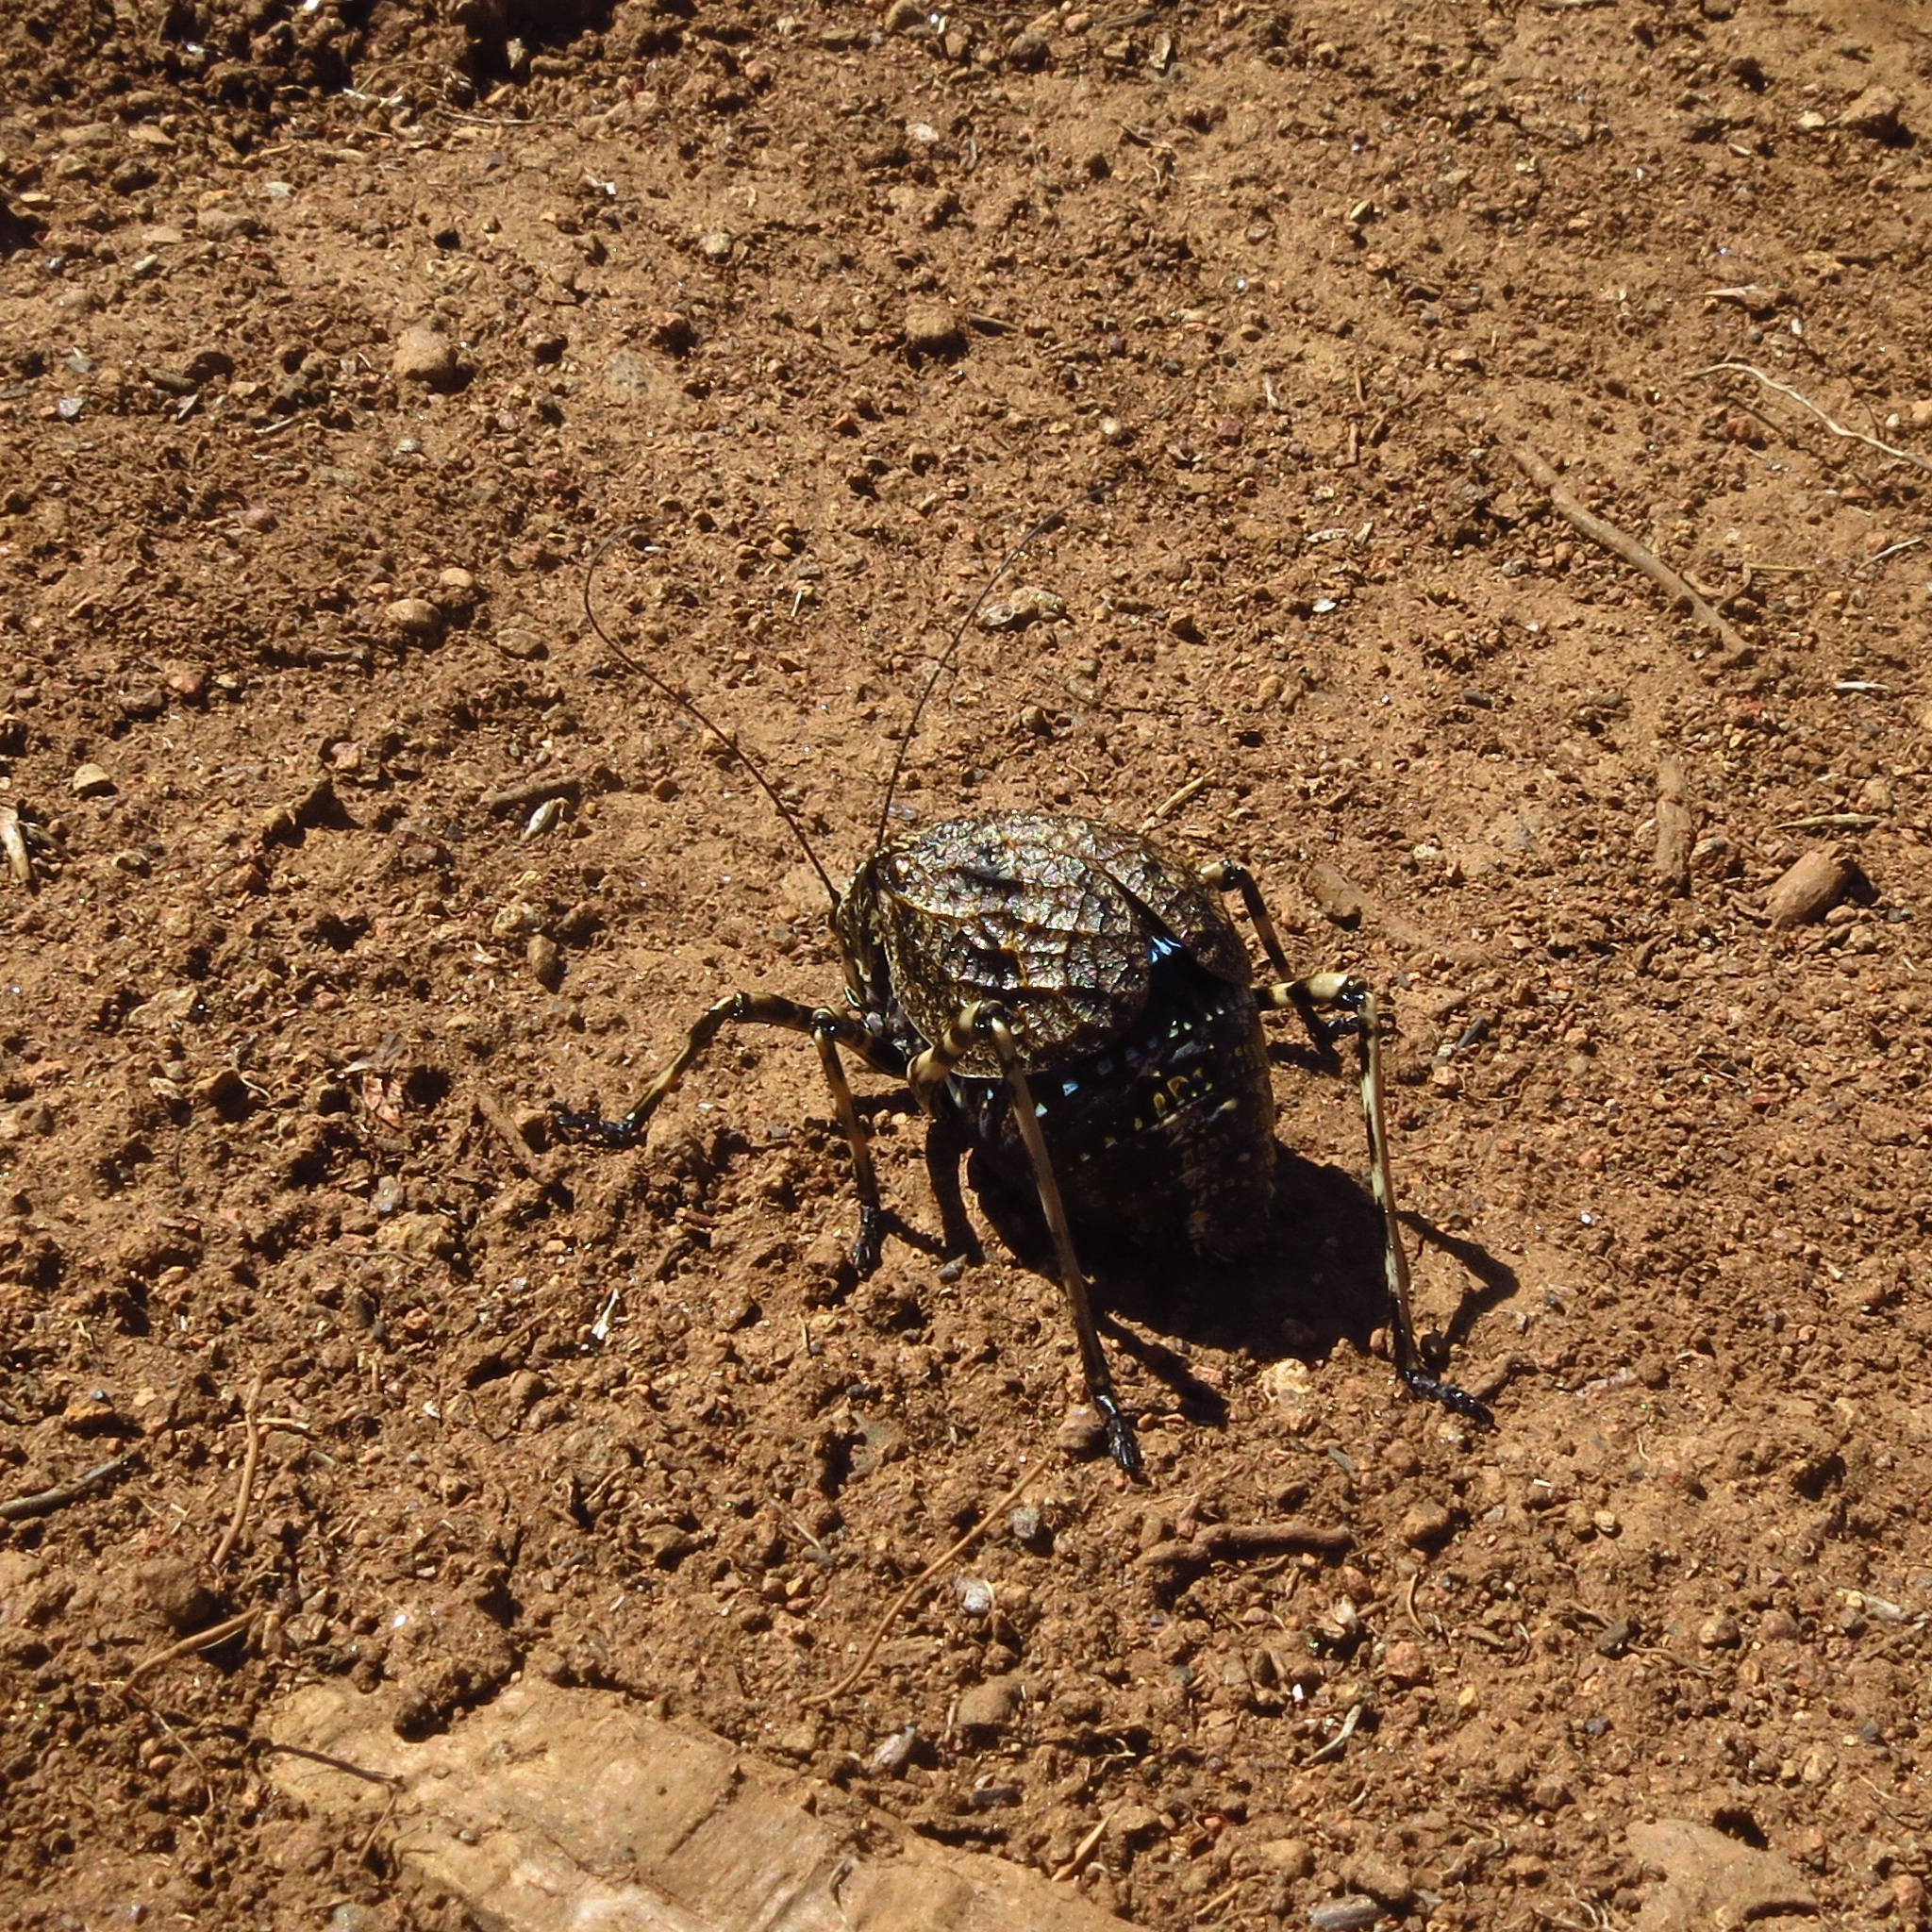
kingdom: Animalia
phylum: Arthropoda
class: Insecta
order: Orthoptera
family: Tettigoniidae
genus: Acripeza
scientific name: Acripeza reticulata
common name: Mountain katydid
